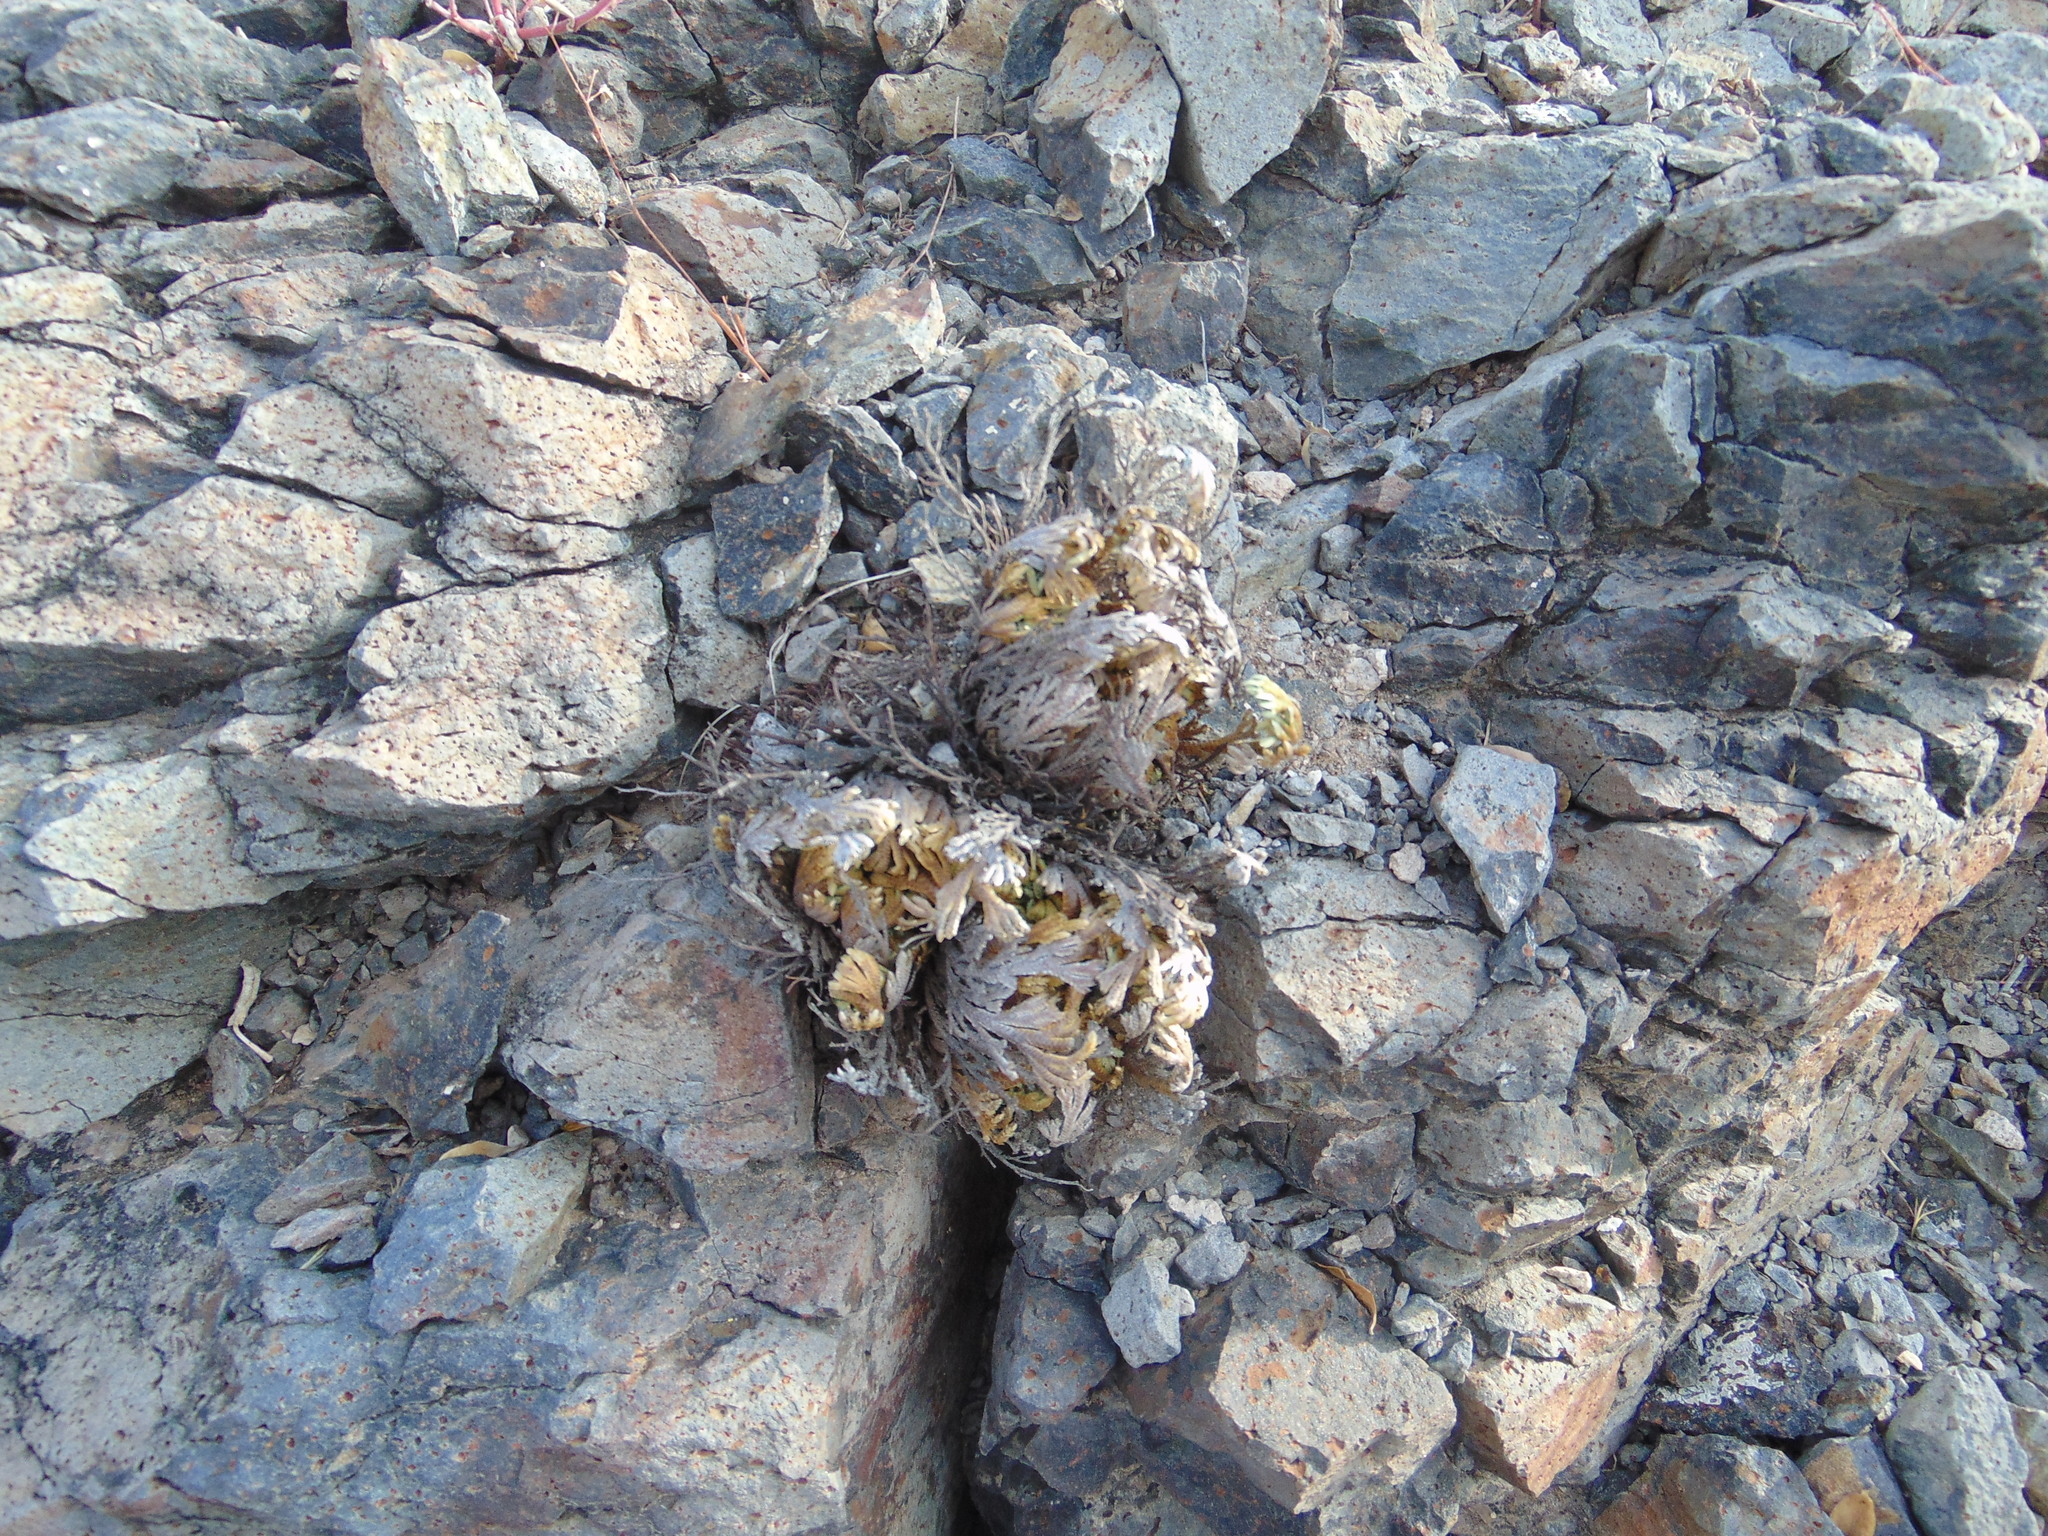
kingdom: Plantae
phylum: Tracheophyta
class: Lycopodiopsida
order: Selaginellales
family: Selaginellaceae
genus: Selaginella
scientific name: Selaginella lepidophylla
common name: Rose-of-jericho
